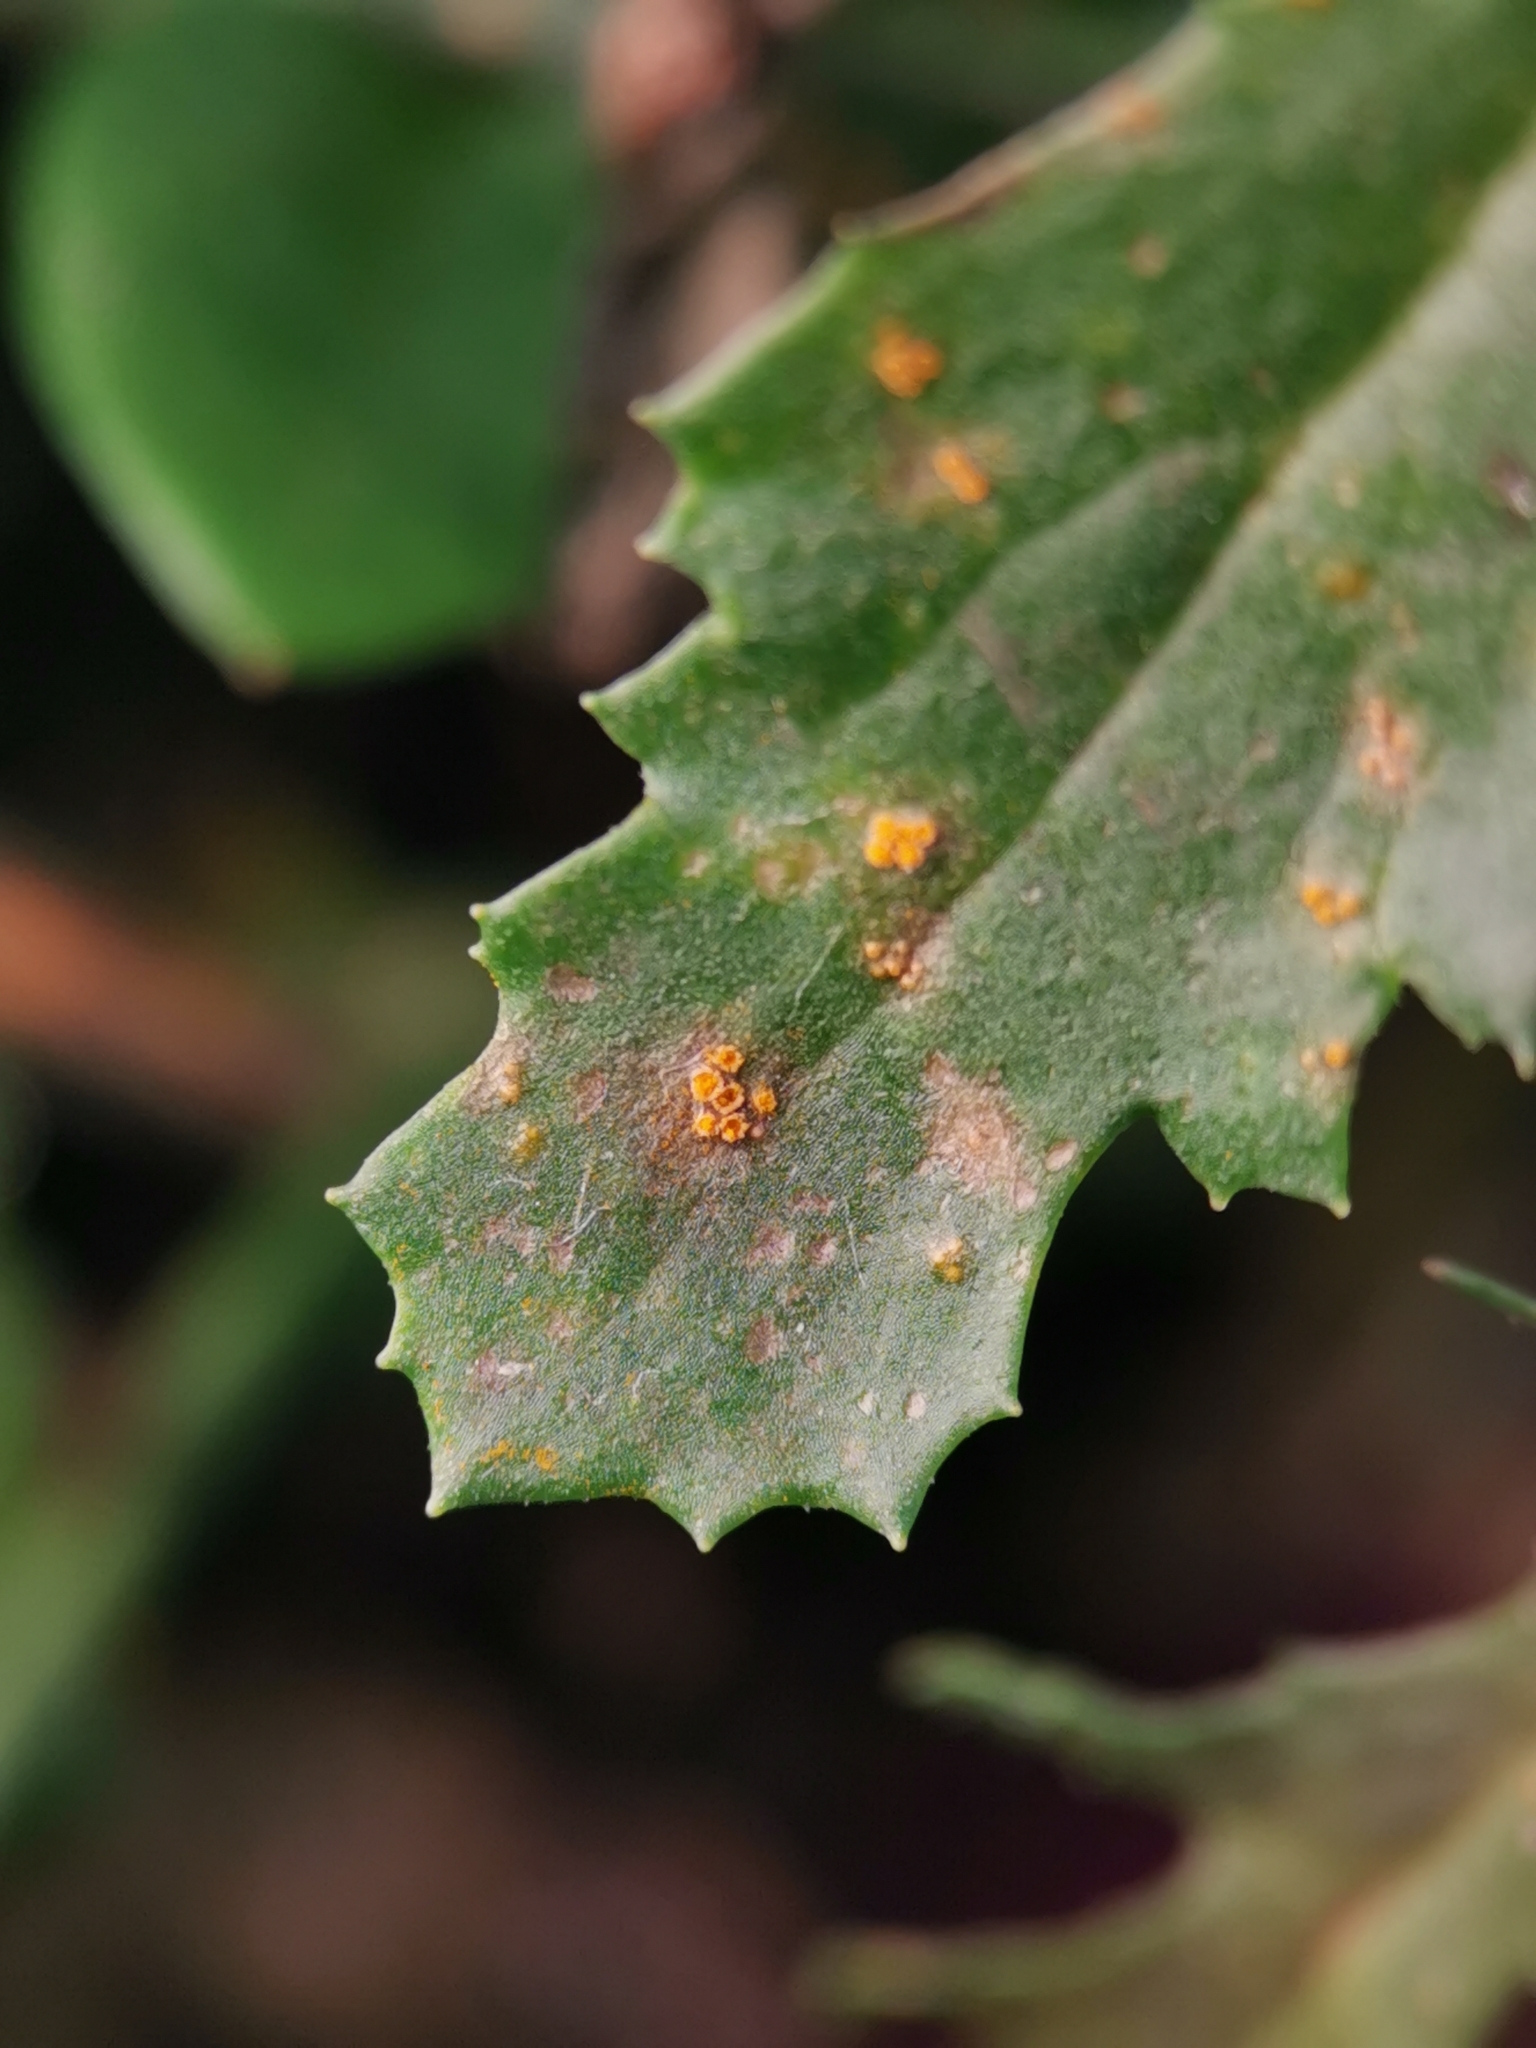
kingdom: Fungi
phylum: Basidiomycota
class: Pucciniomycetes
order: Pucciniales
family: Pucciniaceae
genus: Puccinia
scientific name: Puccinia lagenophorae
